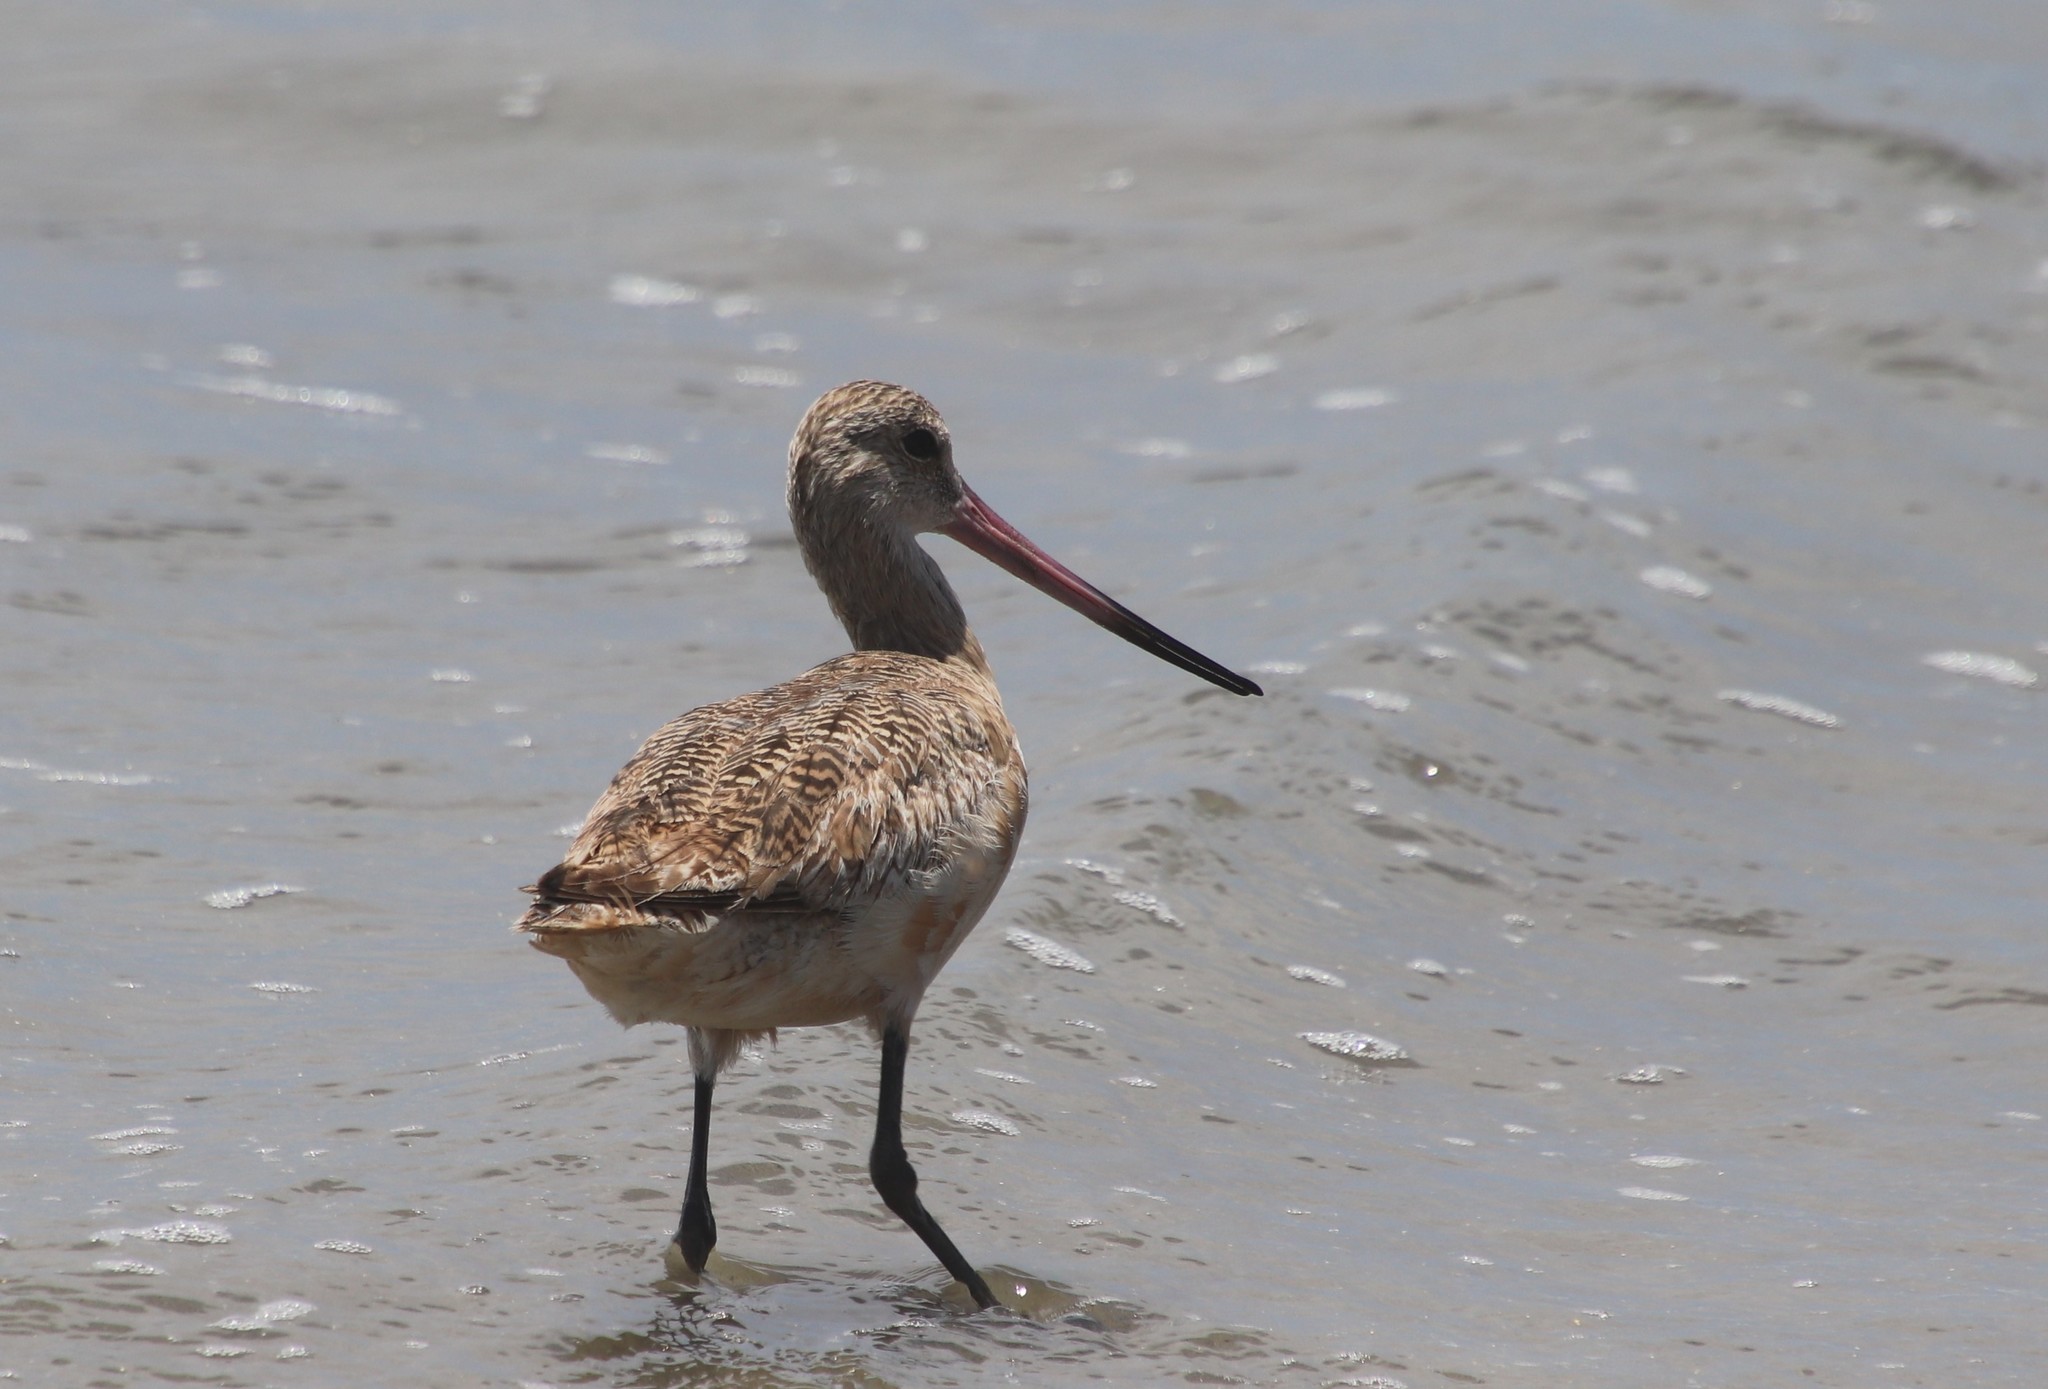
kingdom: Animalia
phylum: Chordata
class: Aves
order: Charadriiformes
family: Scolopacidae
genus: Limosa
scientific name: Limosa fedoa
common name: Marbled godwit
